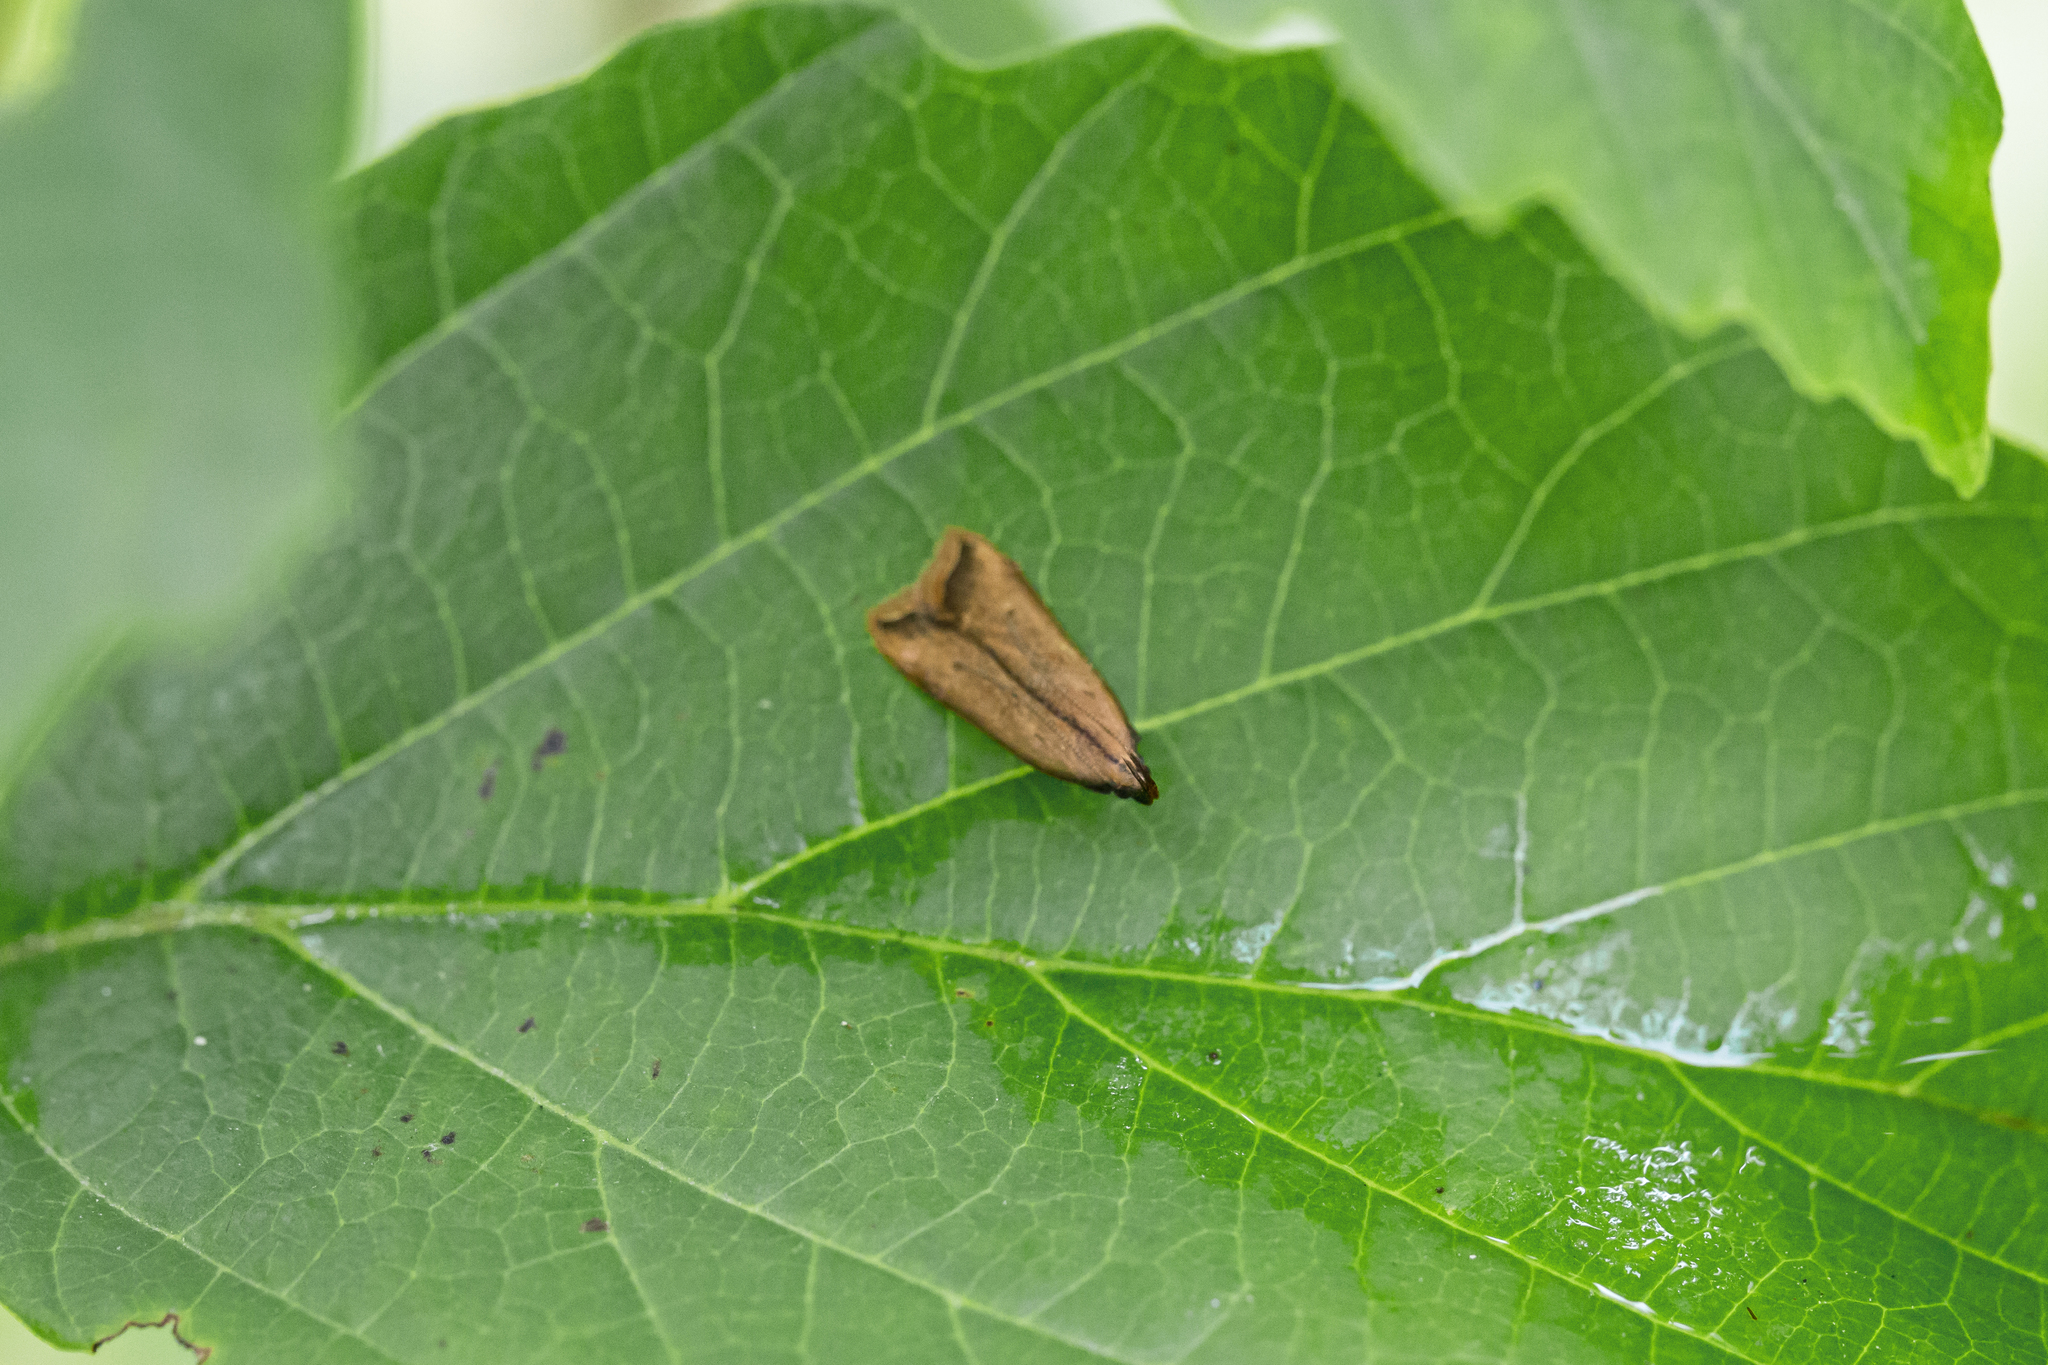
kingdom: Animalia
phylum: Arthropoda
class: Insecta
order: Lepidoptera
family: Gelechiidae
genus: Dichomeris
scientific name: Dichomeris heriguronis
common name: Black-edged dichomeris moth
